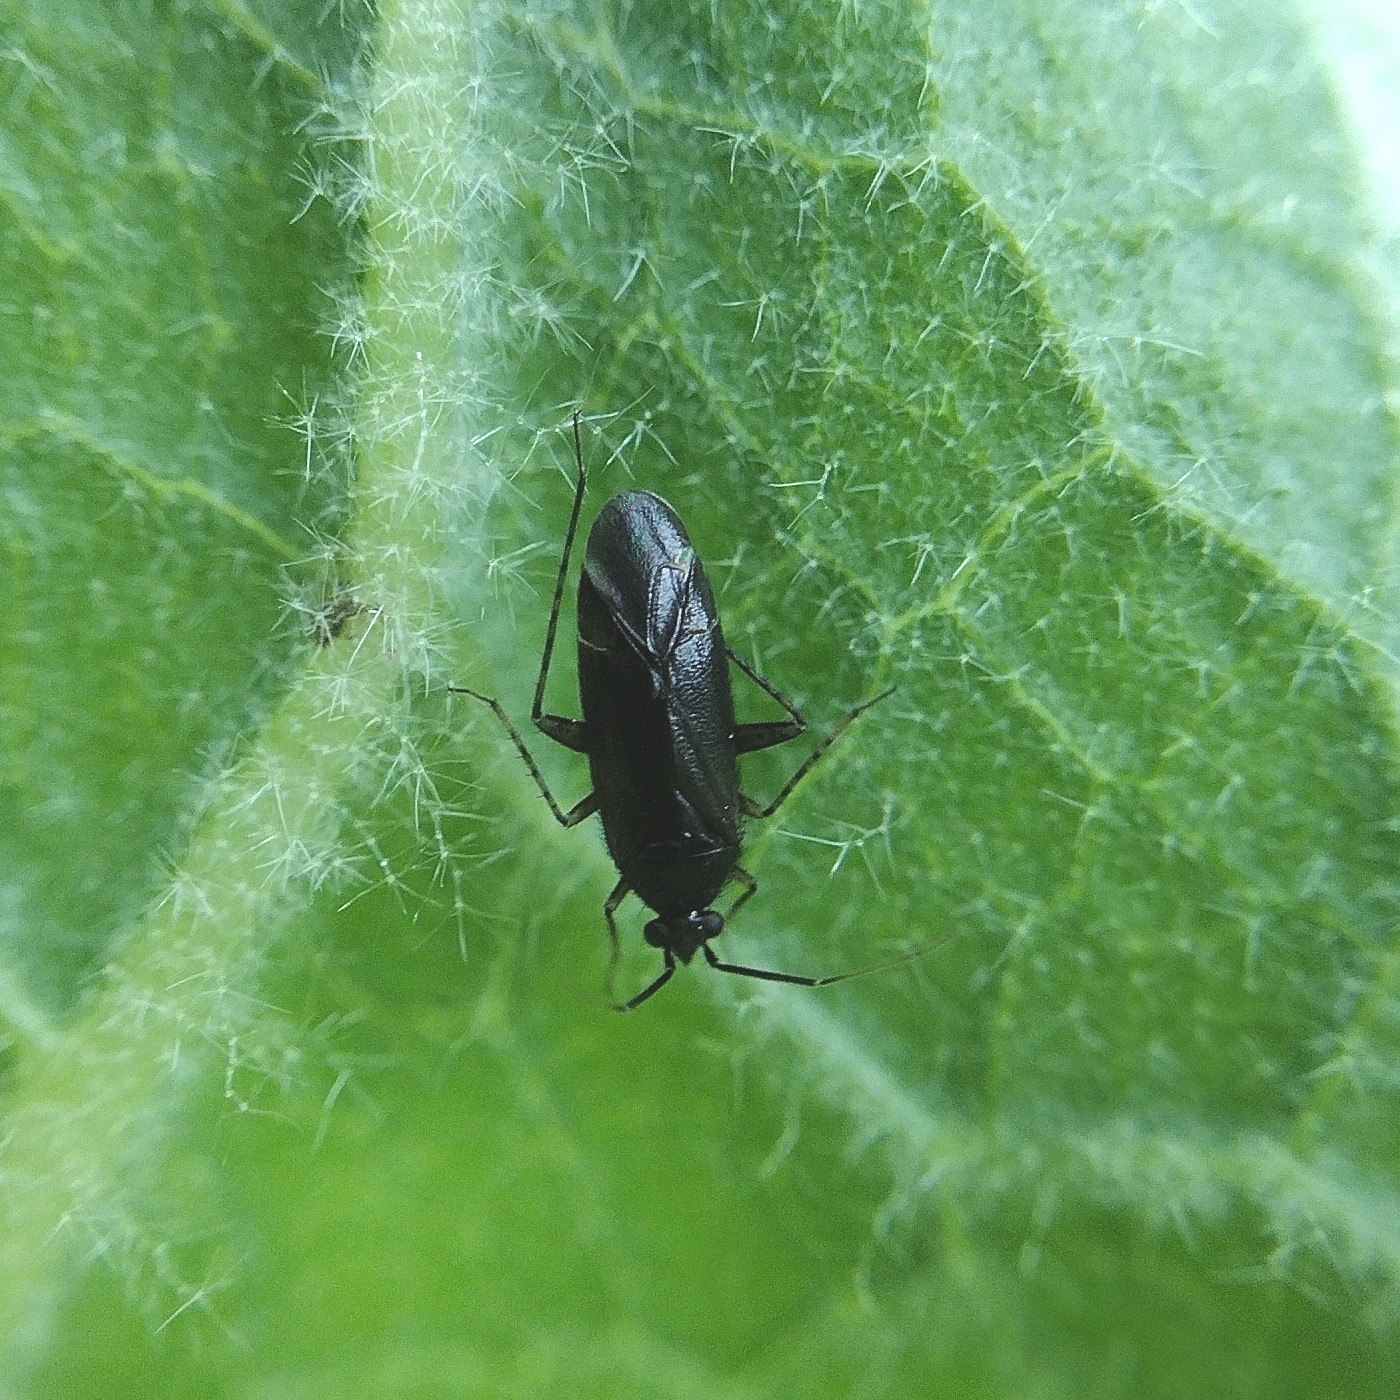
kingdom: Animalia
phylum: Arthropoda
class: Insecta
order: Hemiptera
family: Miridae
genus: Plagiognathus
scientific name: Plagiognathus arbustorum
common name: Plant bug
